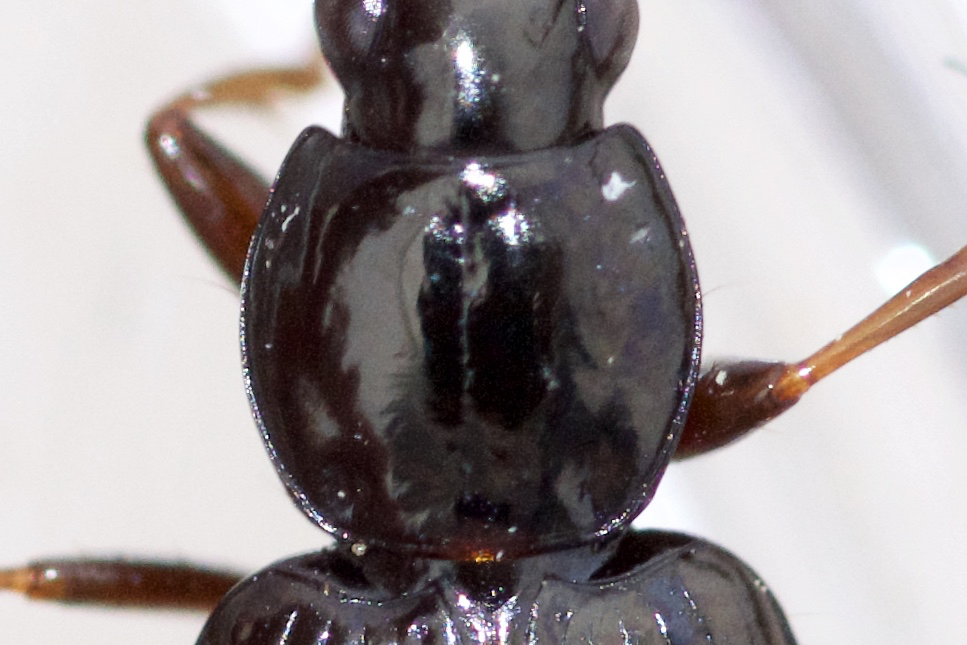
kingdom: Animalia
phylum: Arthropoda
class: Insecta
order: Coleoptera
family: Carabidae
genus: Agonum
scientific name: Agonum punctiforme
